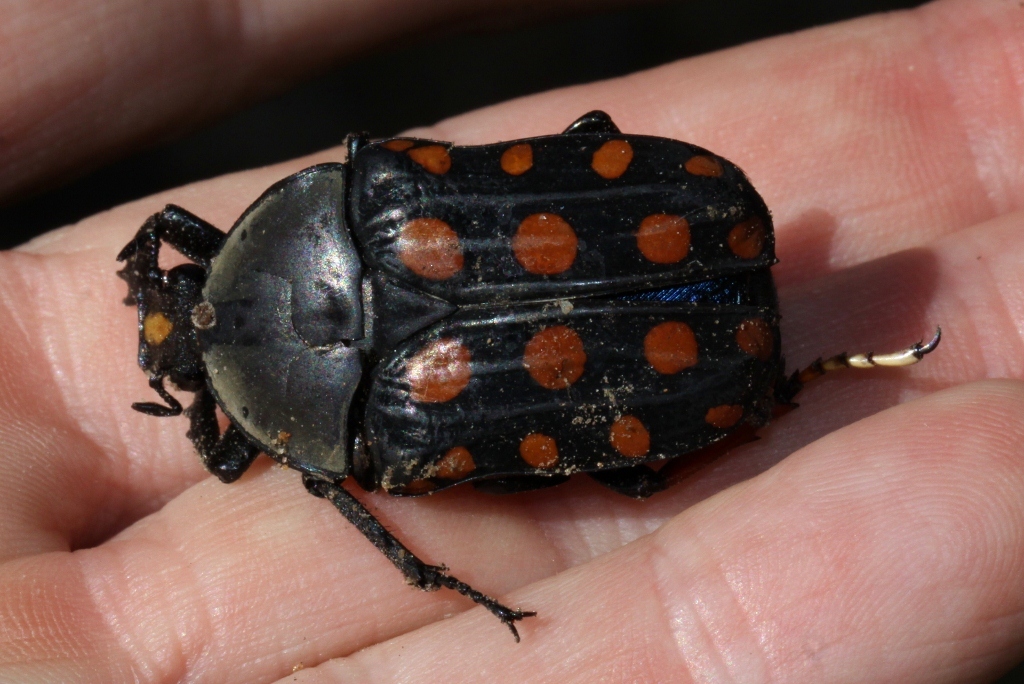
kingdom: Animalia
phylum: Arthropoda
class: Insecta
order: Coleoptera
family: Scarabaeidae
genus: Mecynorhina
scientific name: Mecynorhina passerinii
